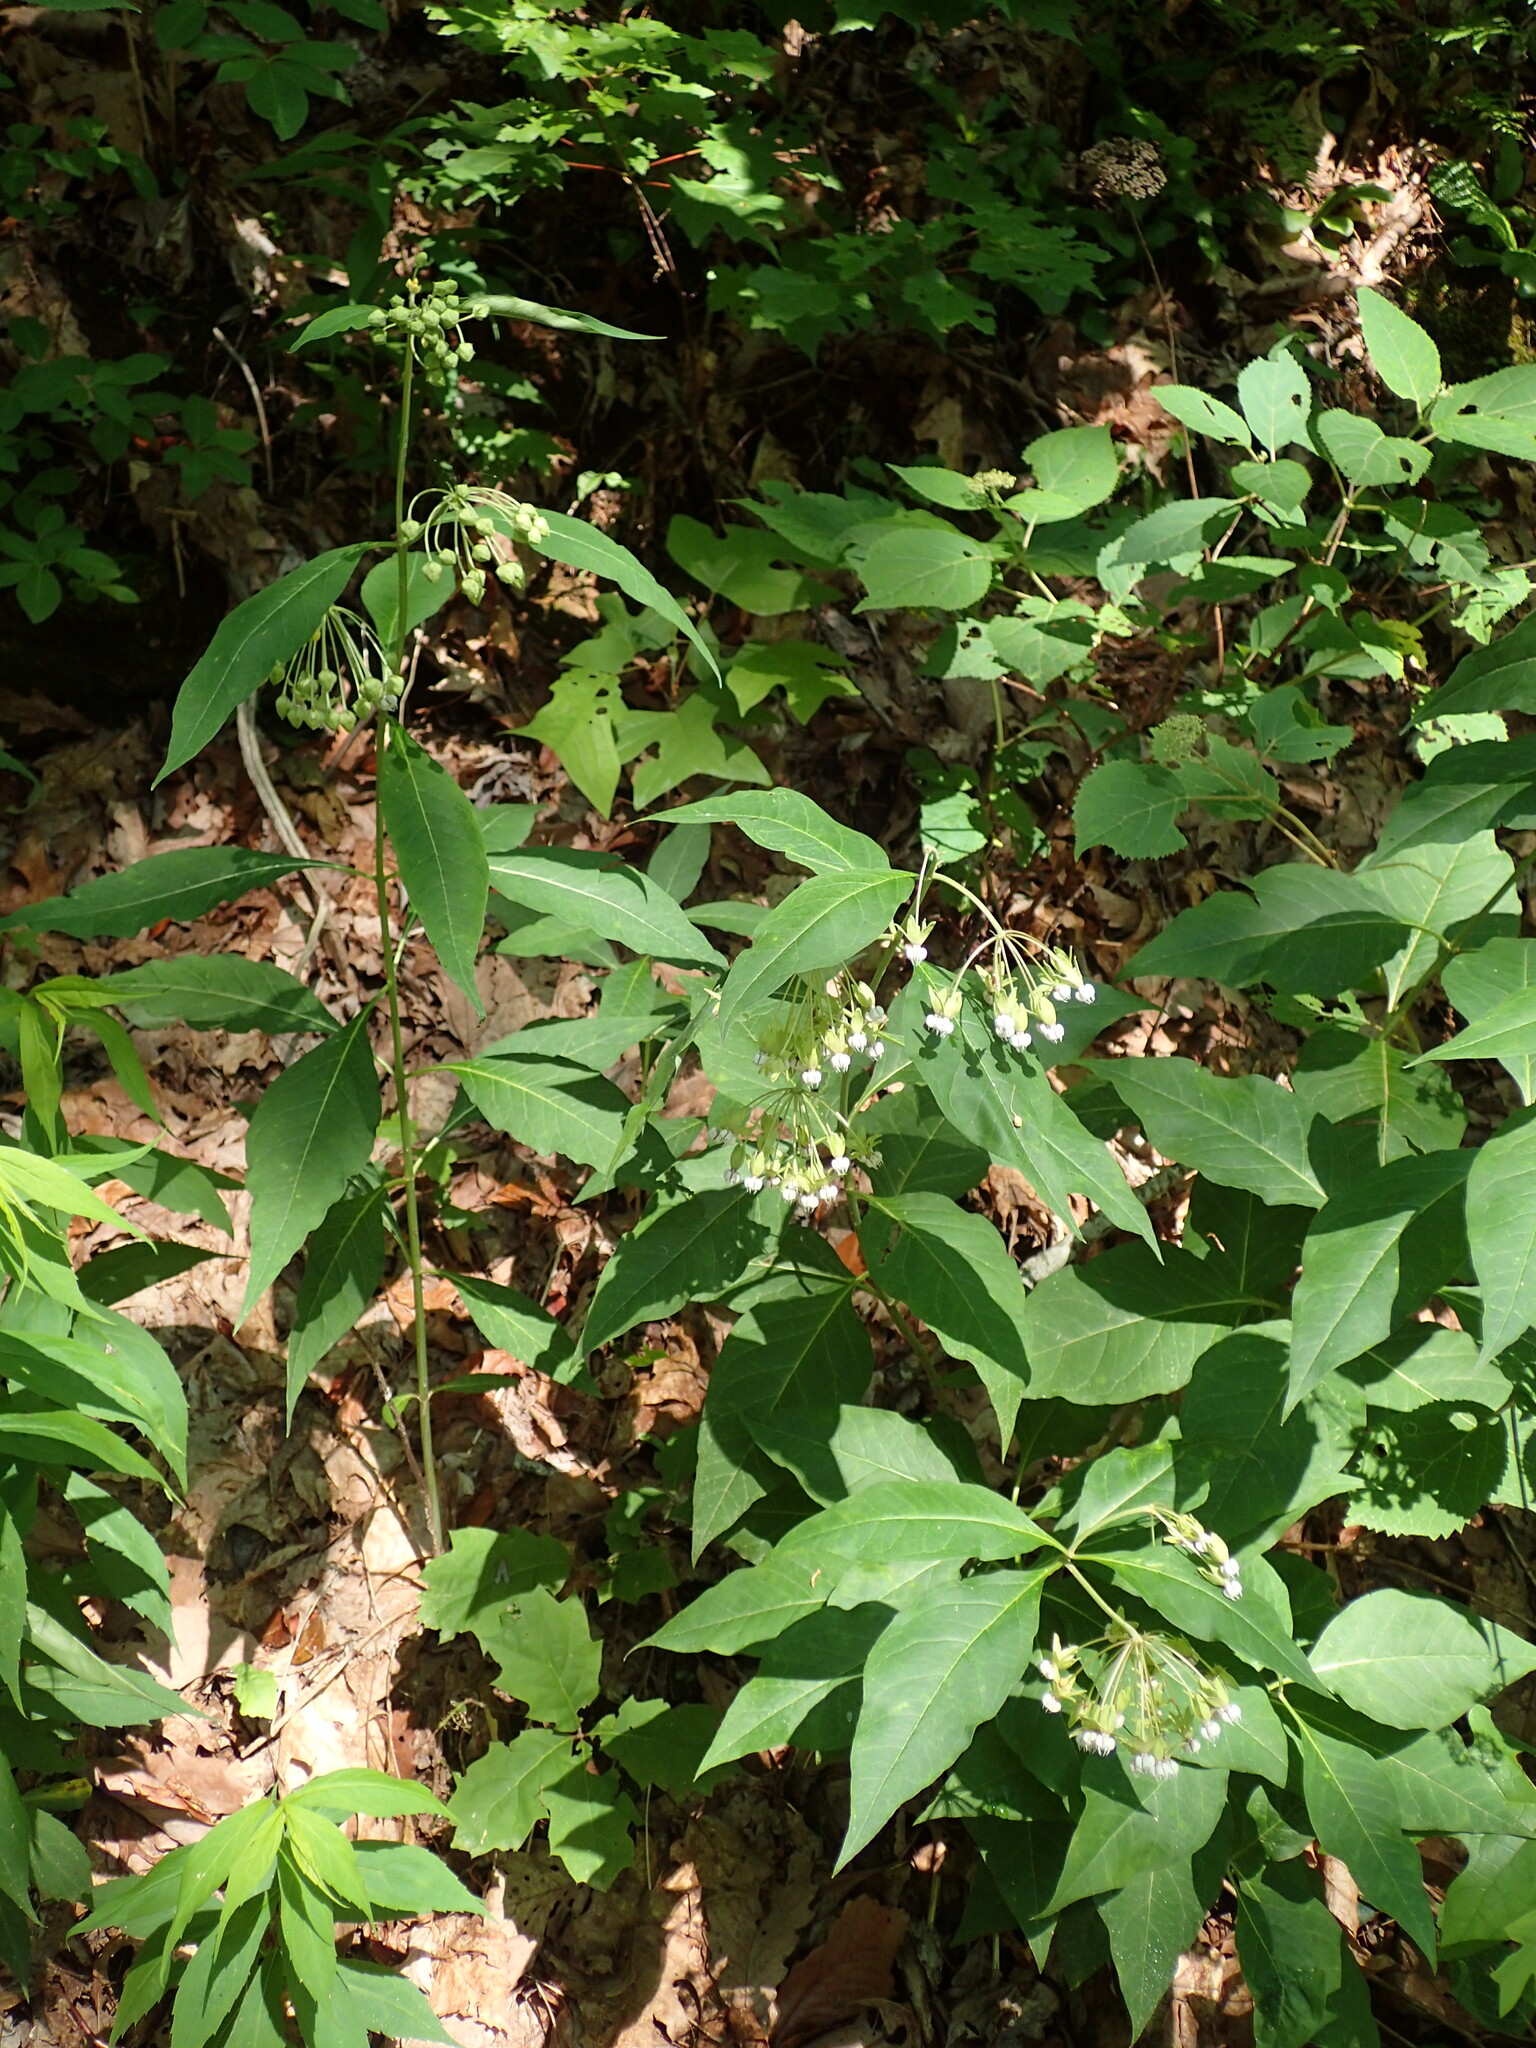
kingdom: Plantae
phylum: Tracheophyta
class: Magnoliopsida
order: Gentianales
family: Apocynaceae
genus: Asclepias
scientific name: Asclepias exaltata
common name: Poke milkweed
